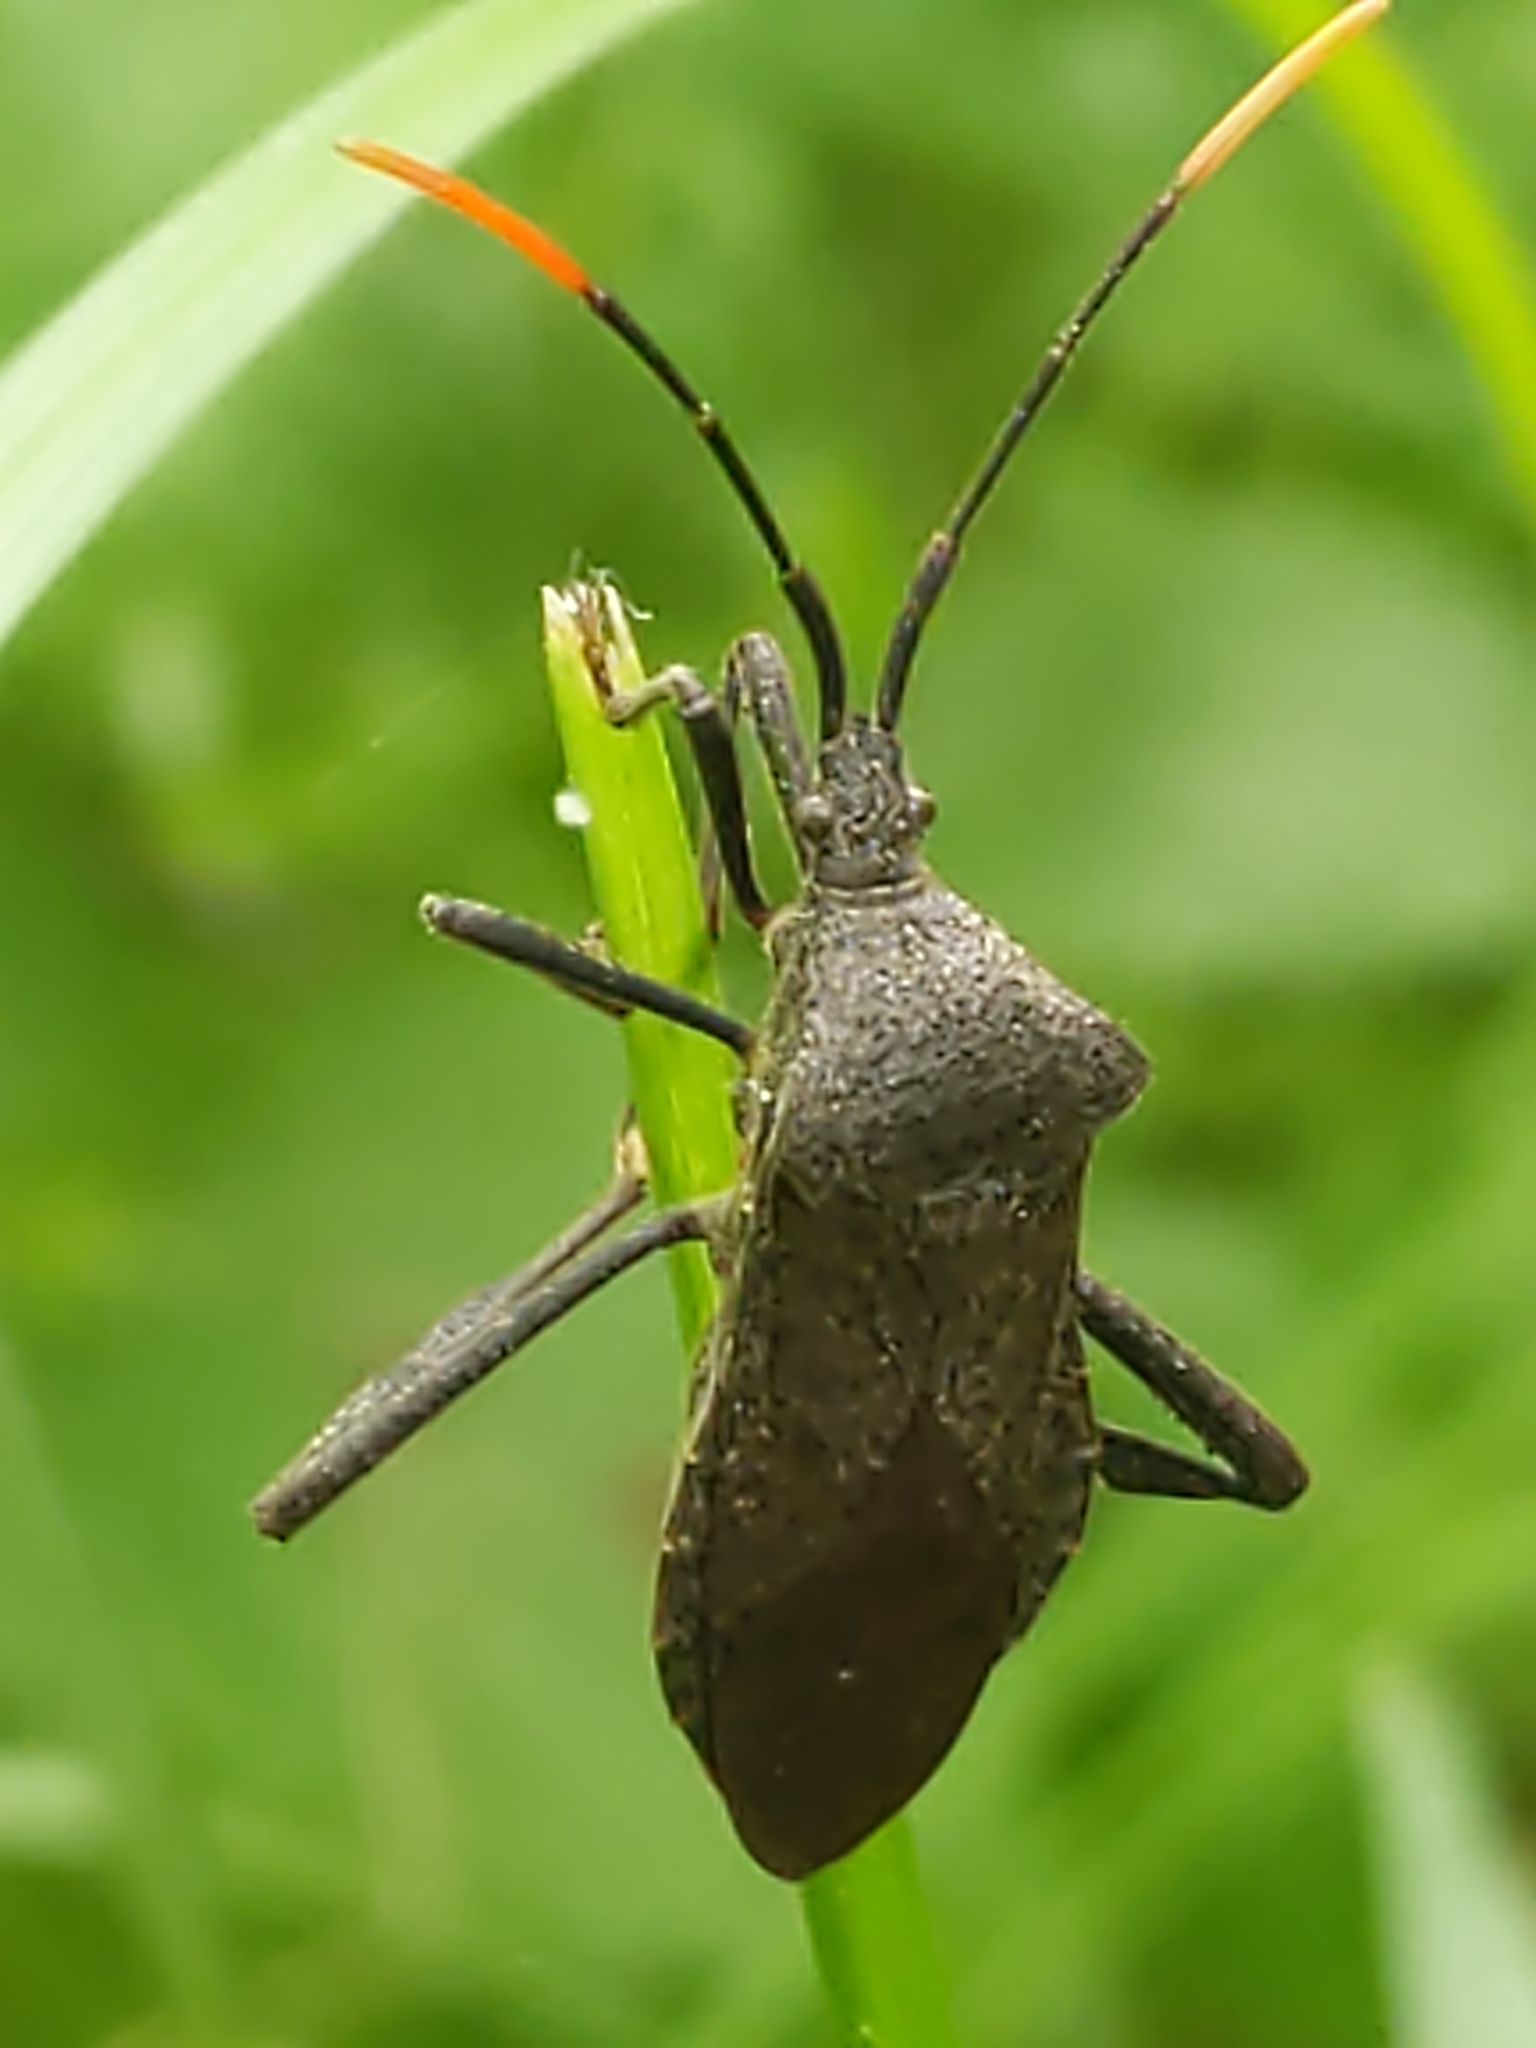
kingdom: Animalia
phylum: Arthropoda
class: Insecta
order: Hemiptera
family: Coreidae
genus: Acanthocephala
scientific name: Acanthocephala terminalis
